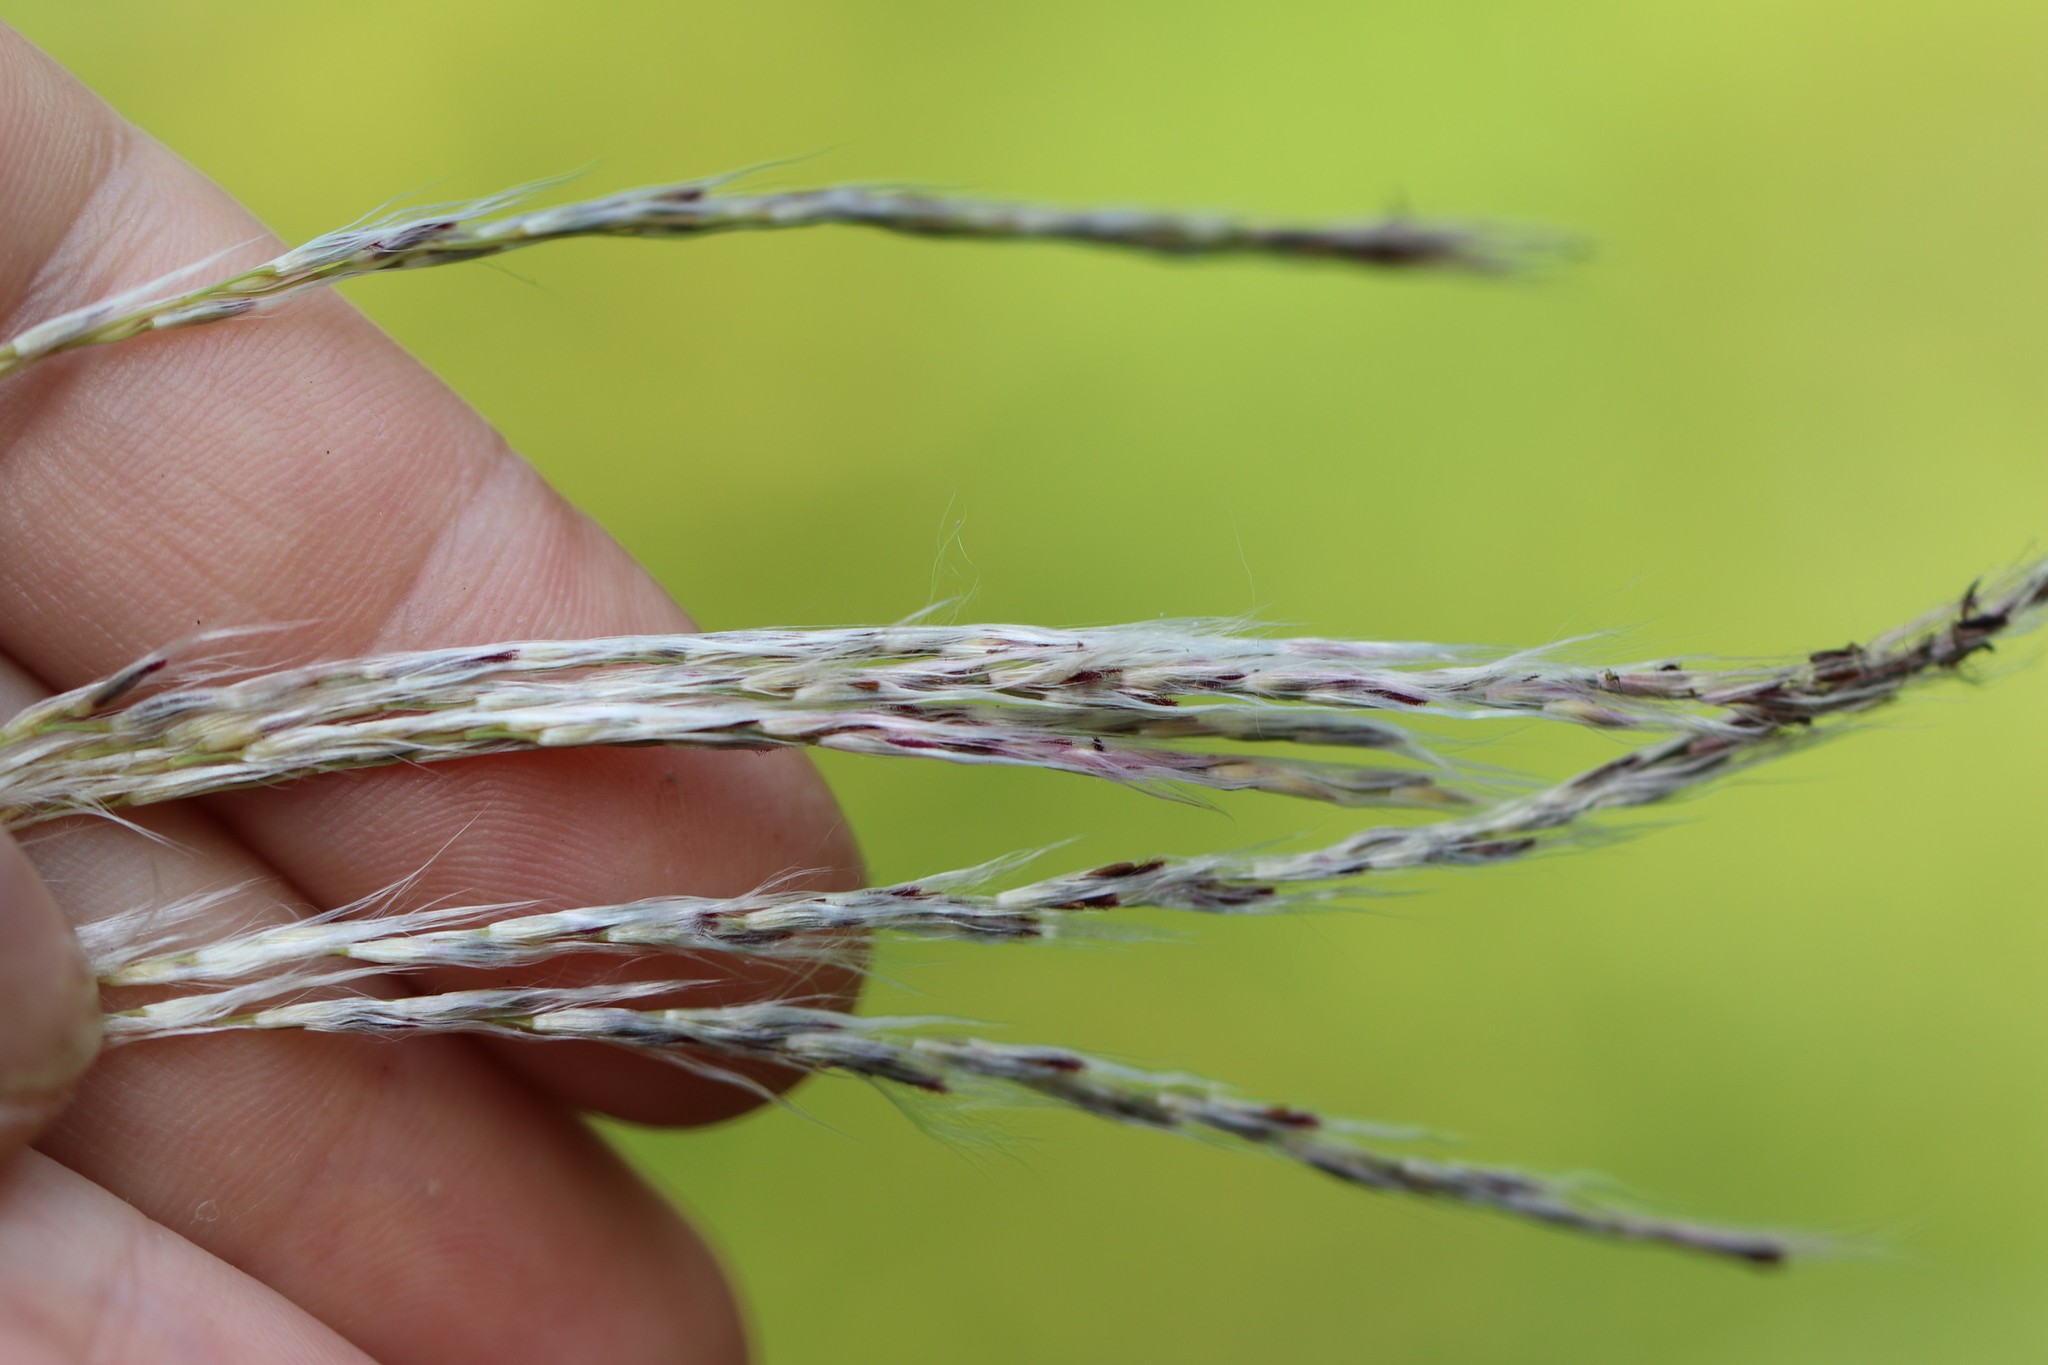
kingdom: Plantae
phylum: Tracheophyta
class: Liliopsida
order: Poales
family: Poaceae
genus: Miscanthus
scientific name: Miscanthus sacchariflorus
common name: Amur silver grass
